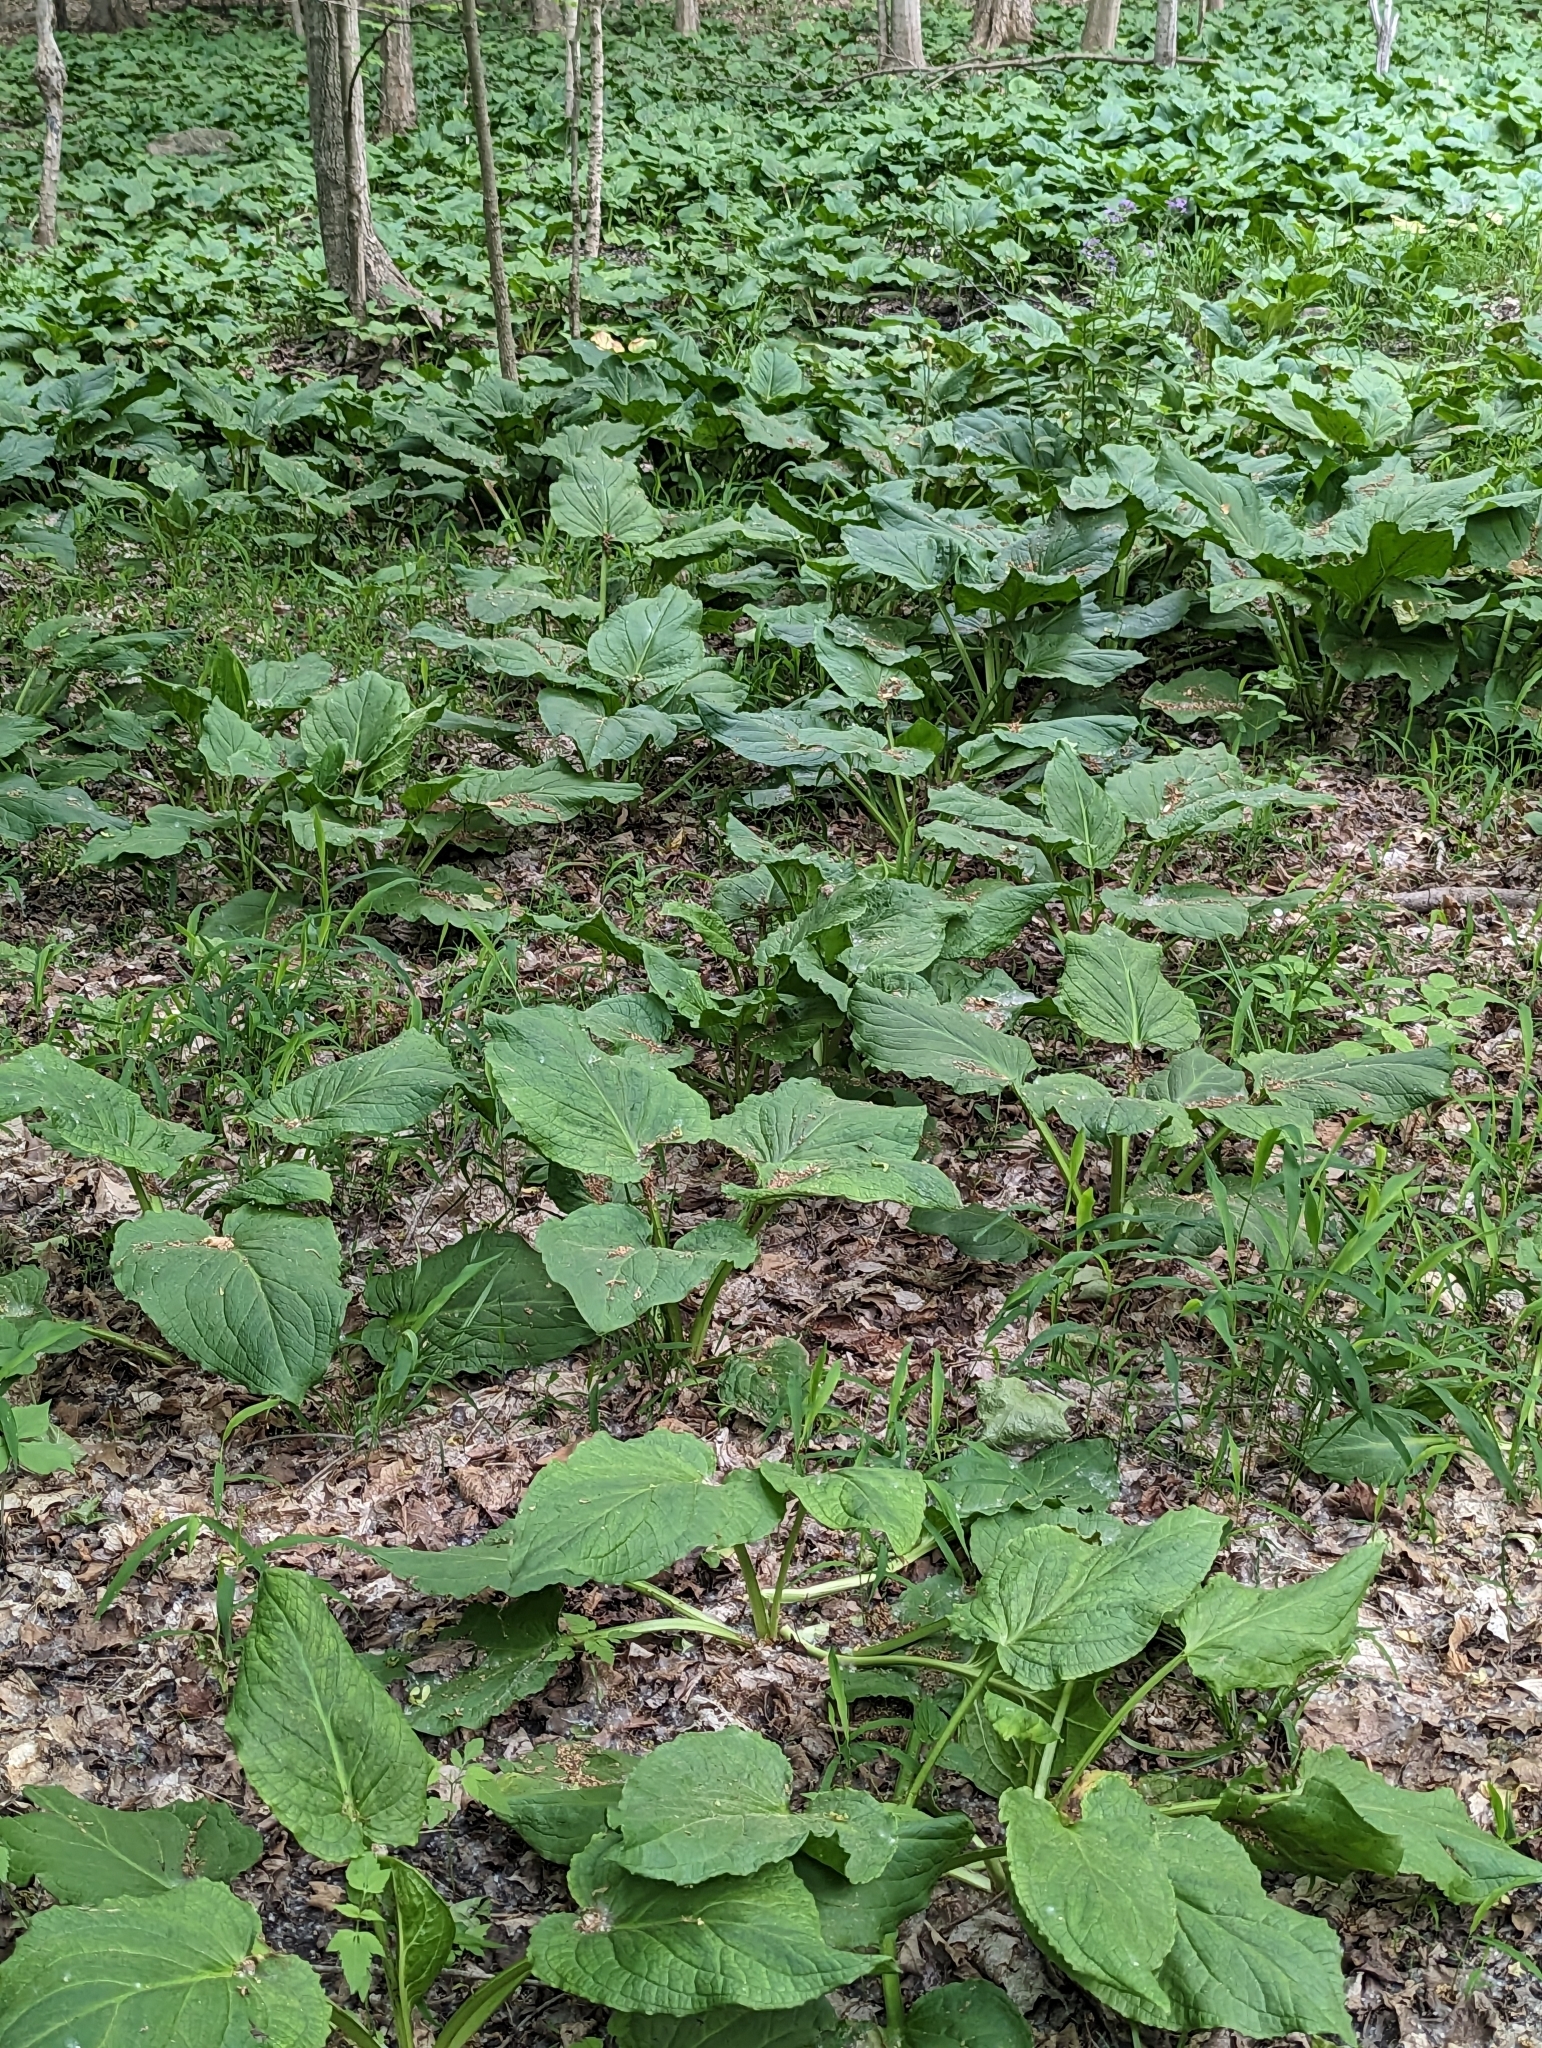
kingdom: Plantae
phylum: Tracheophyta
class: Liliopsida
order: Alismatales
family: Araceae
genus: Symplocarpus
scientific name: Symplocarpus foetidus
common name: Eastern skunk cabbage
